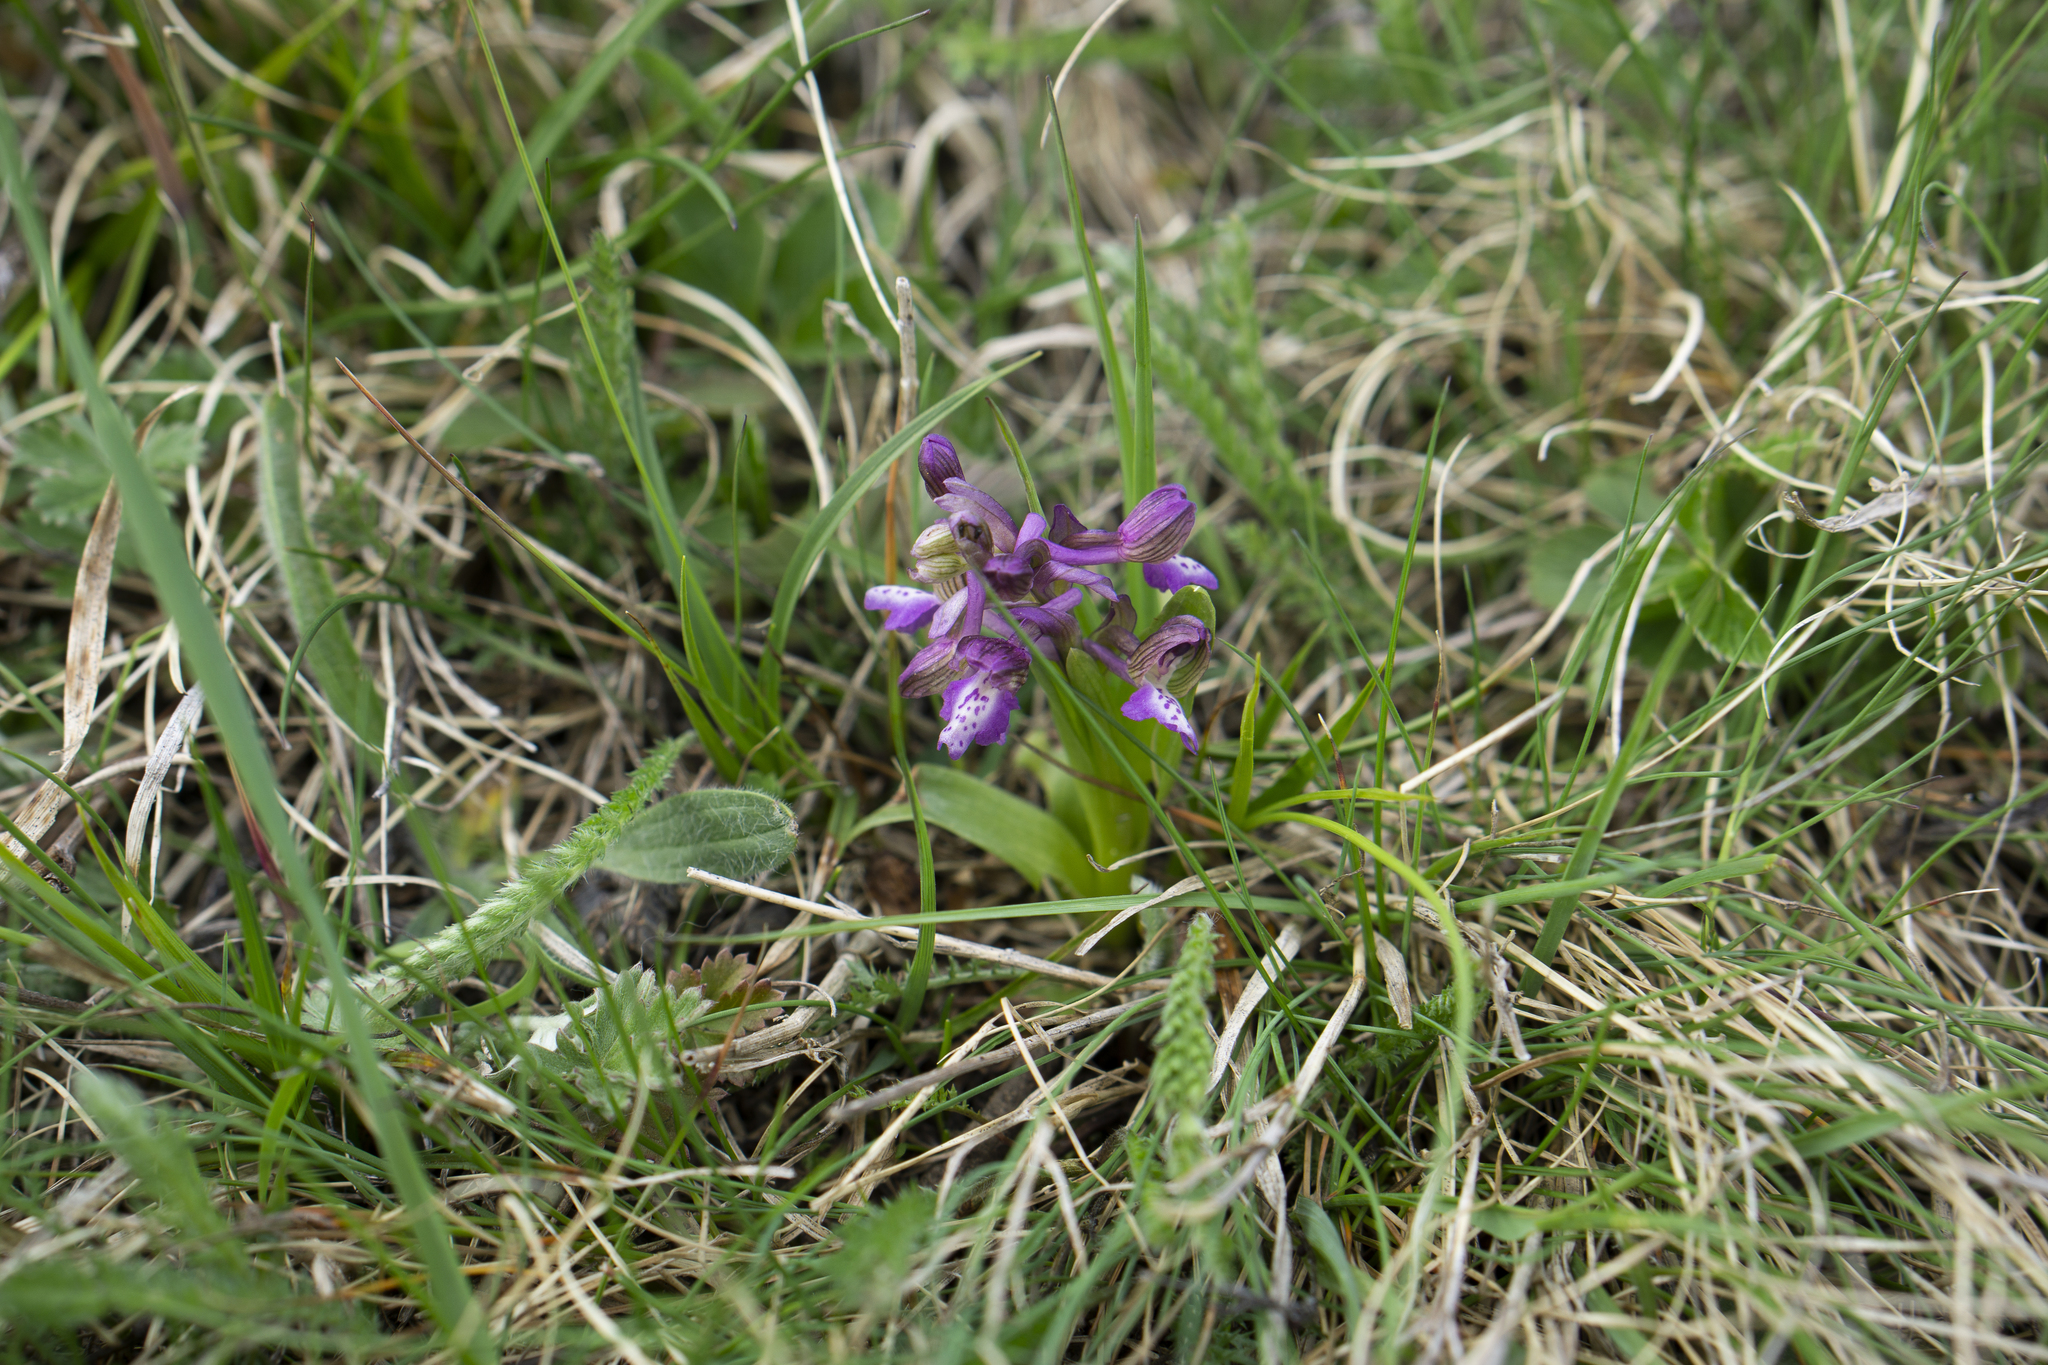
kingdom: Plantae
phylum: Tracheophyta
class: Liliopsida
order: Asparagales
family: Orchidaceae
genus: Anacamptis
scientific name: Anacamptis morio
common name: Green-winged orchid
